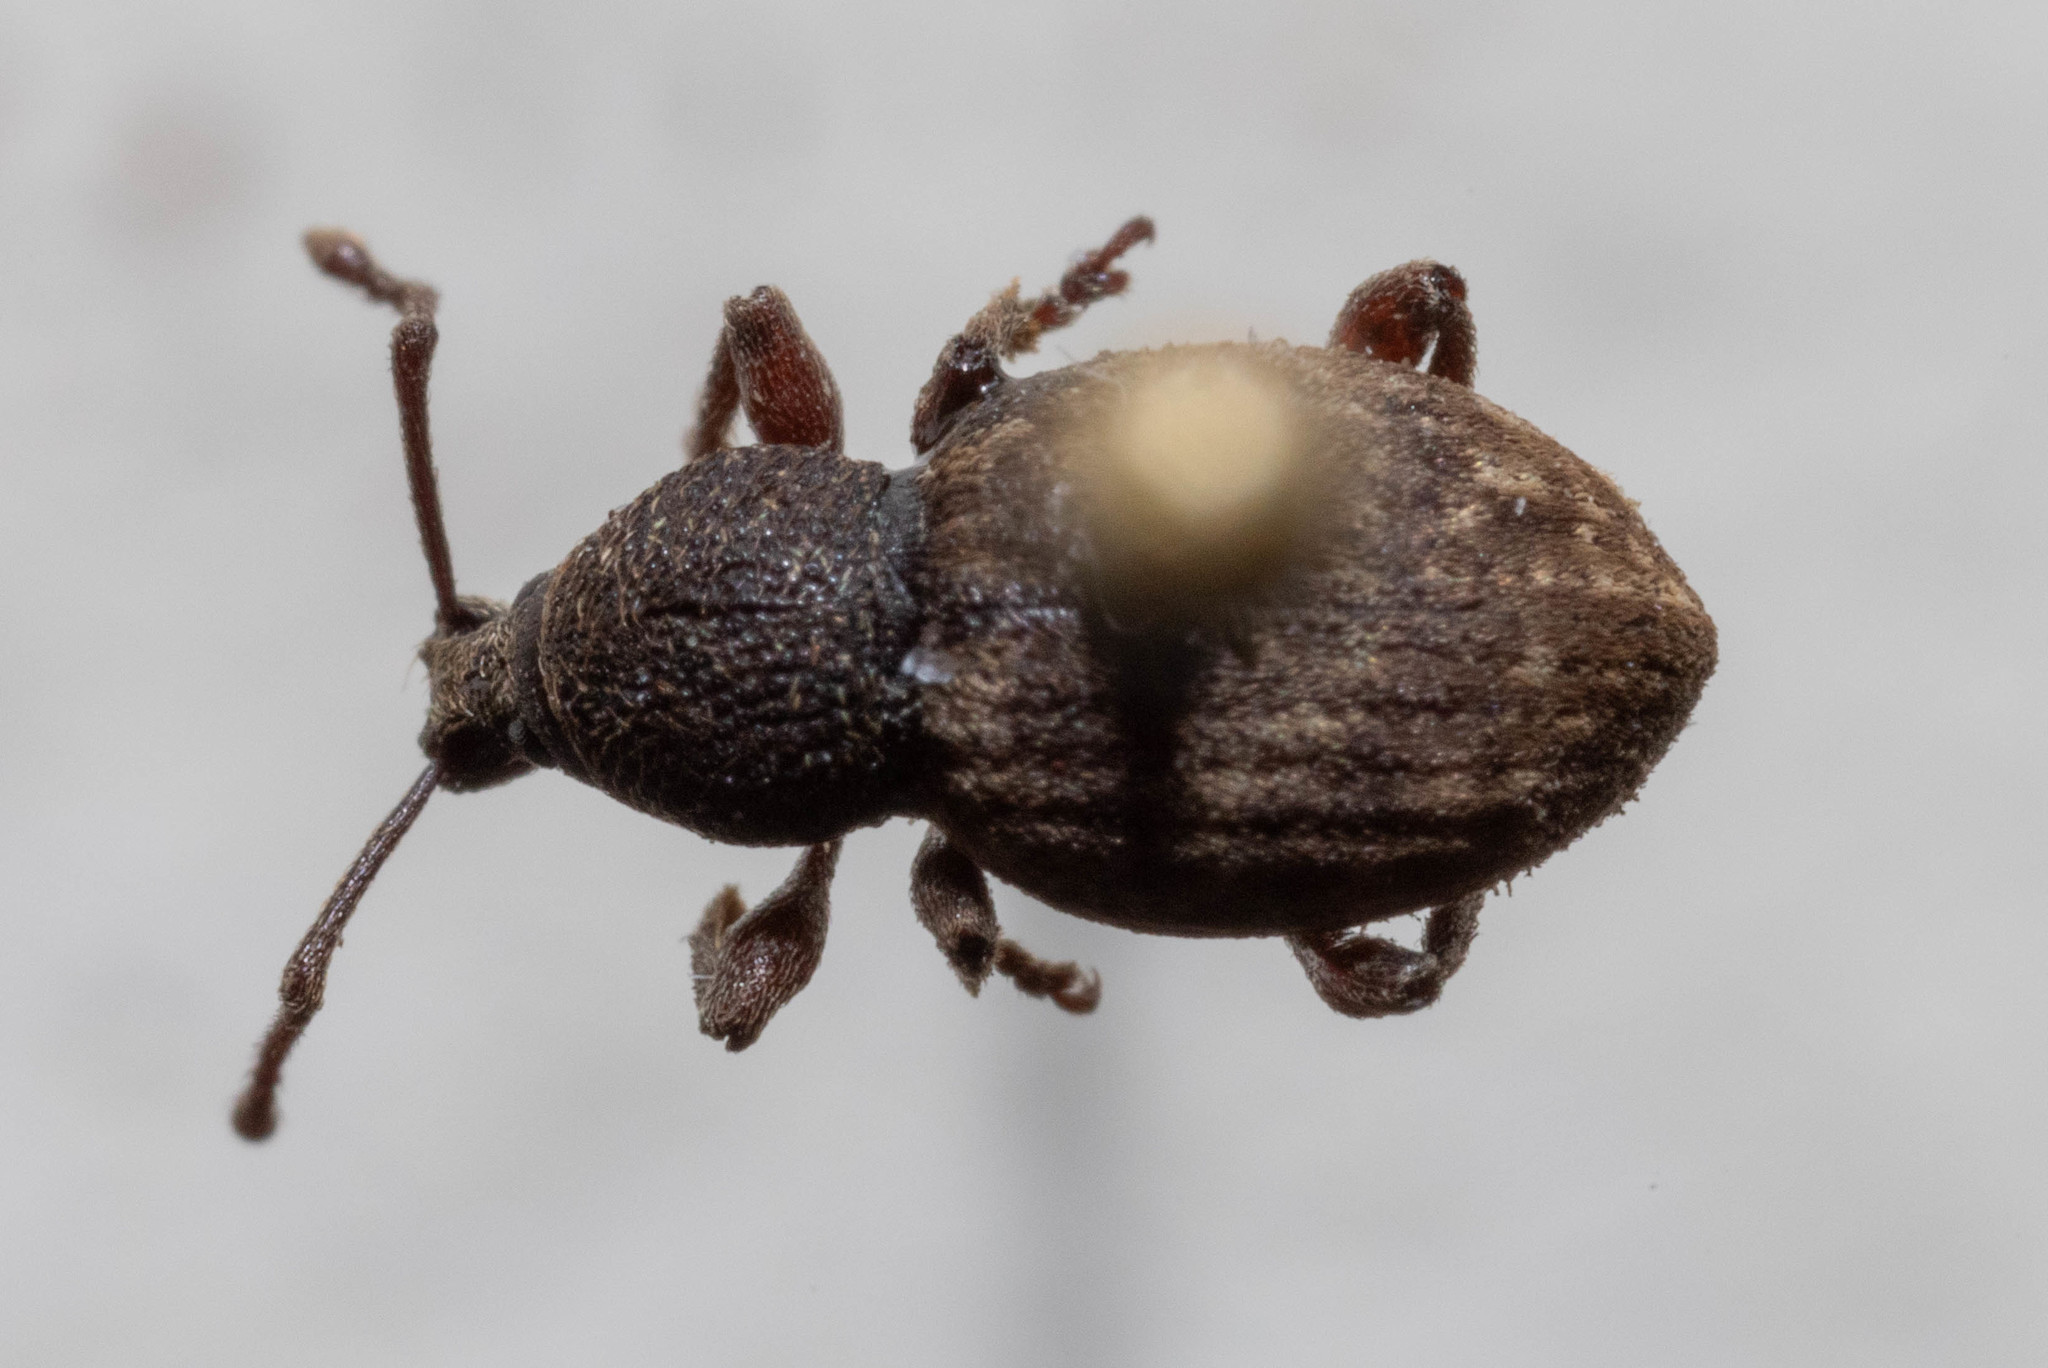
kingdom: Animalia
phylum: Arthropoda
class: Insecta
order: Coleoptera
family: Curculionidae
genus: Otiorhynchus
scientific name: Otiorhynchus raucus
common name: Weevil
